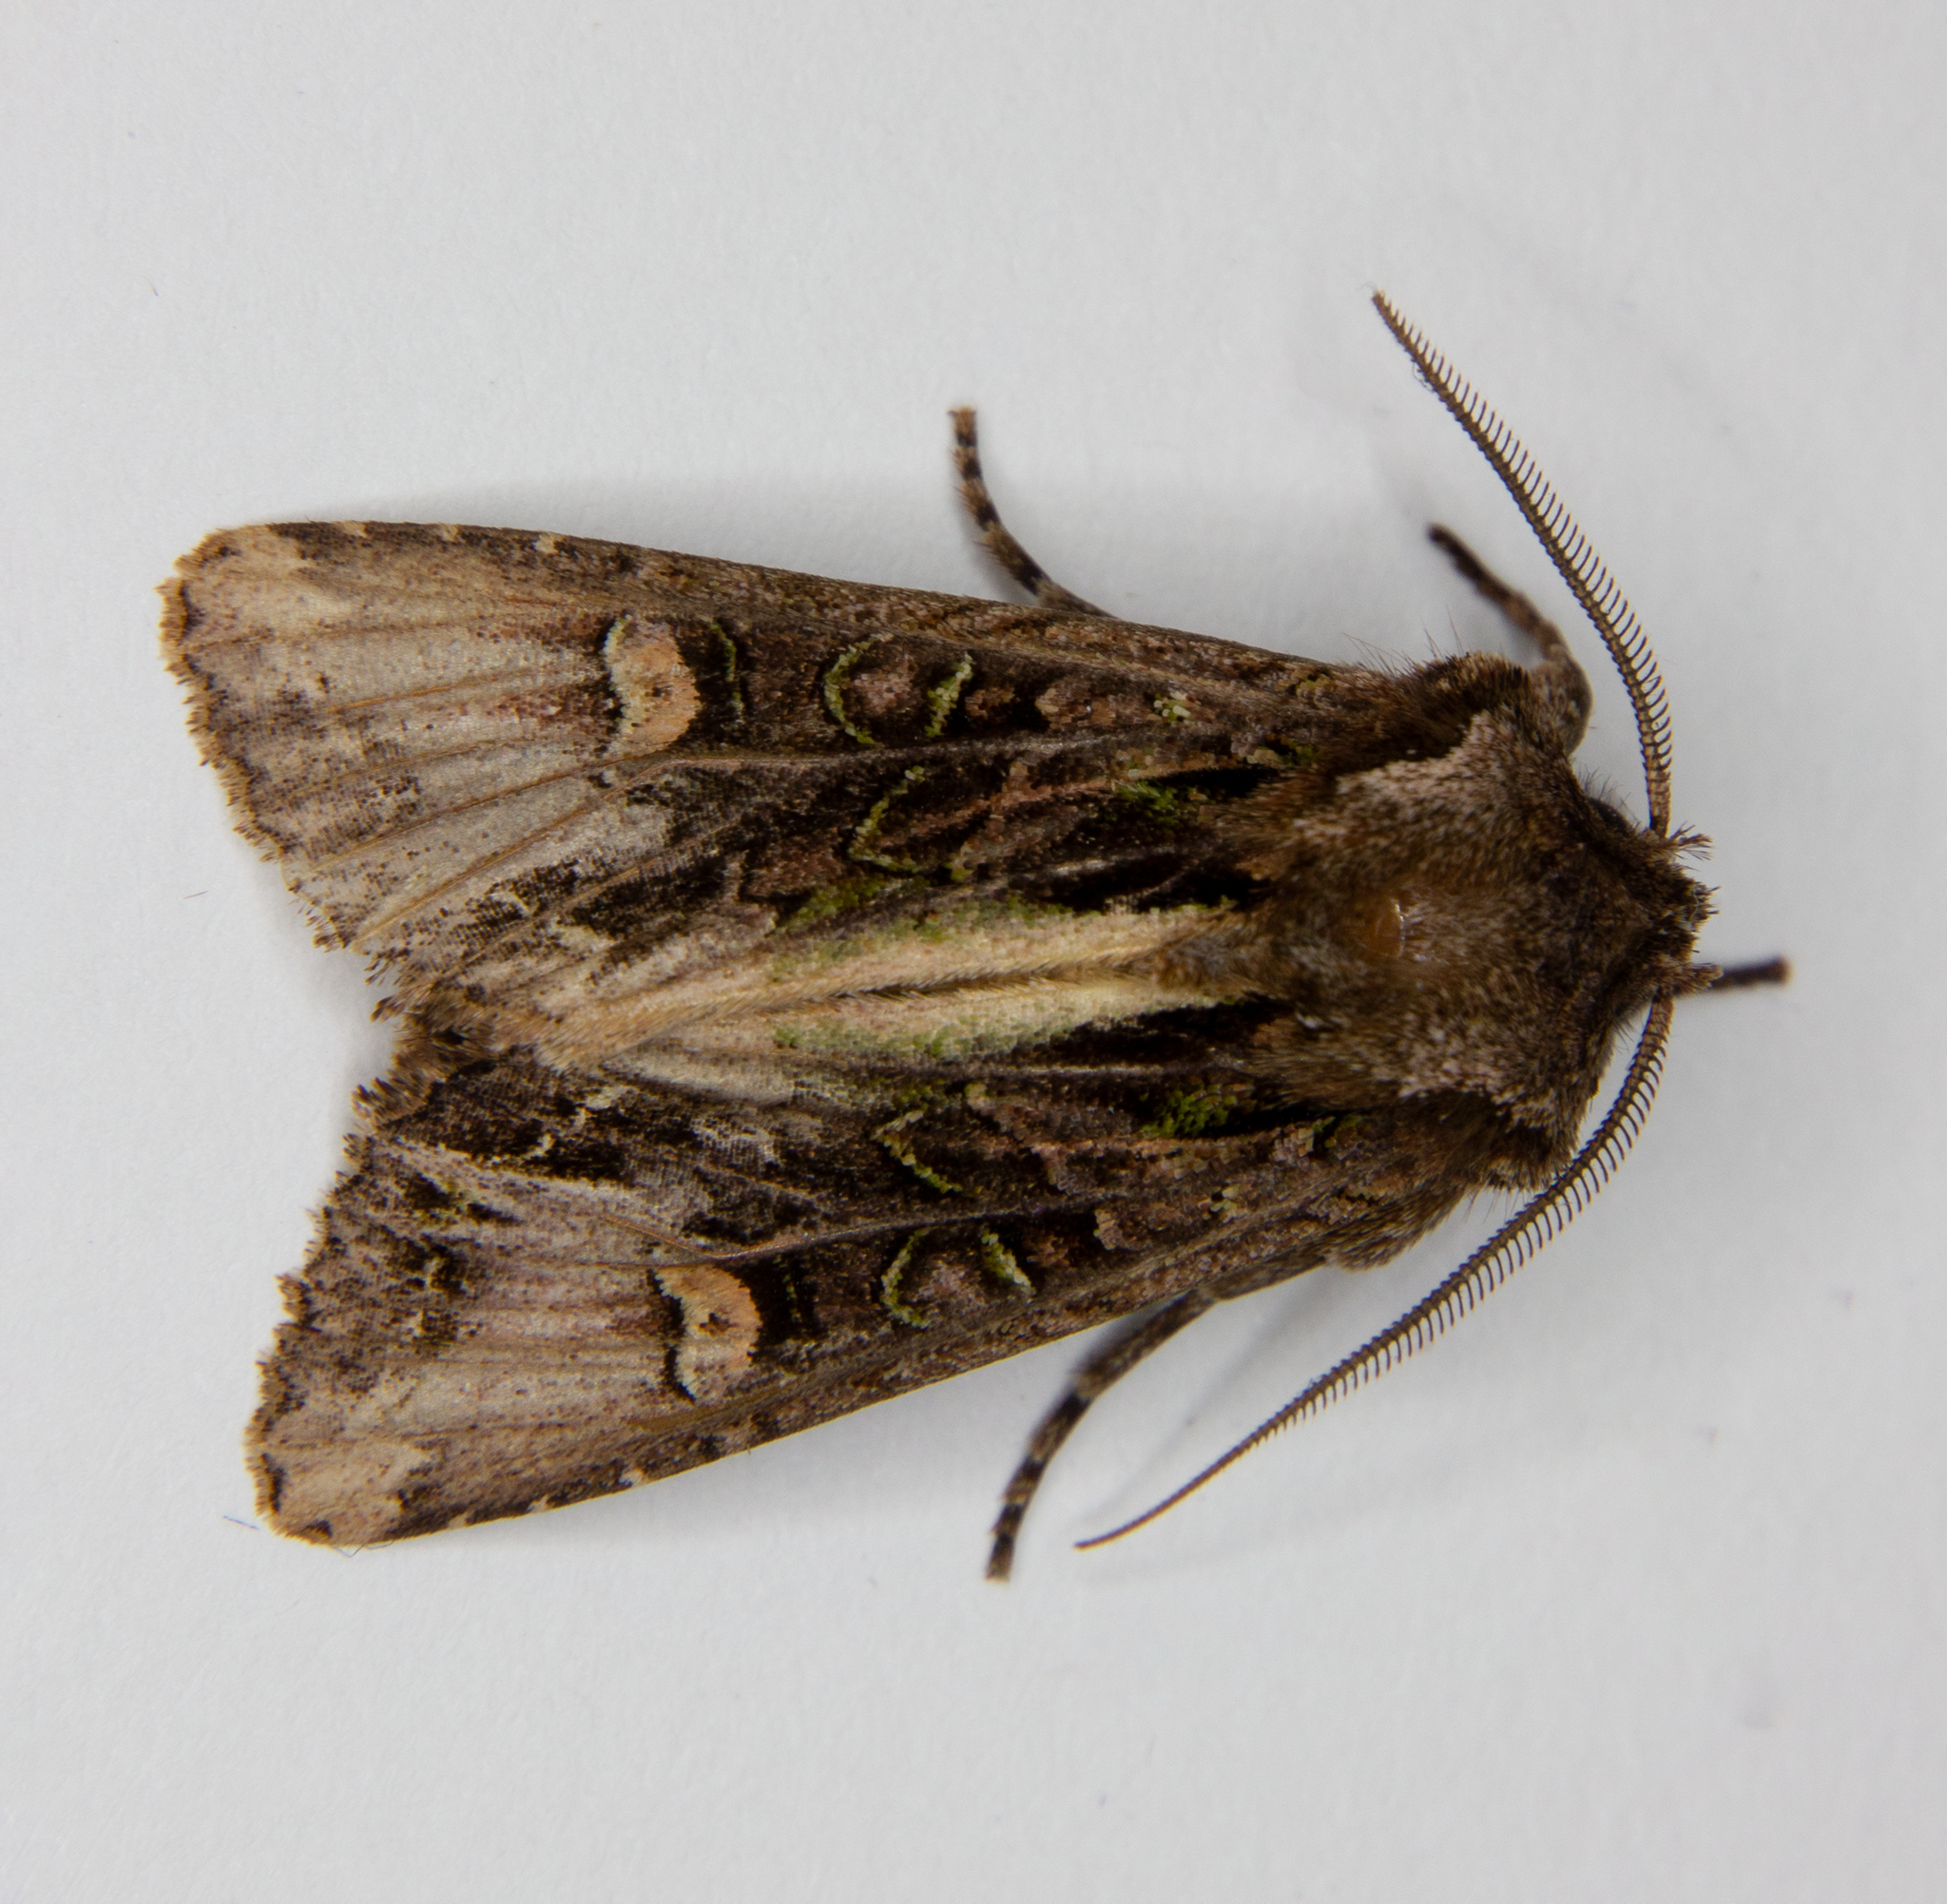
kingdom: Animalia
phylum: Arthropoda
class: Insecta
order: Lepidoptera
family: Noctuidae
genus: Ichneutica
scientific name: Ichneutica insignis
